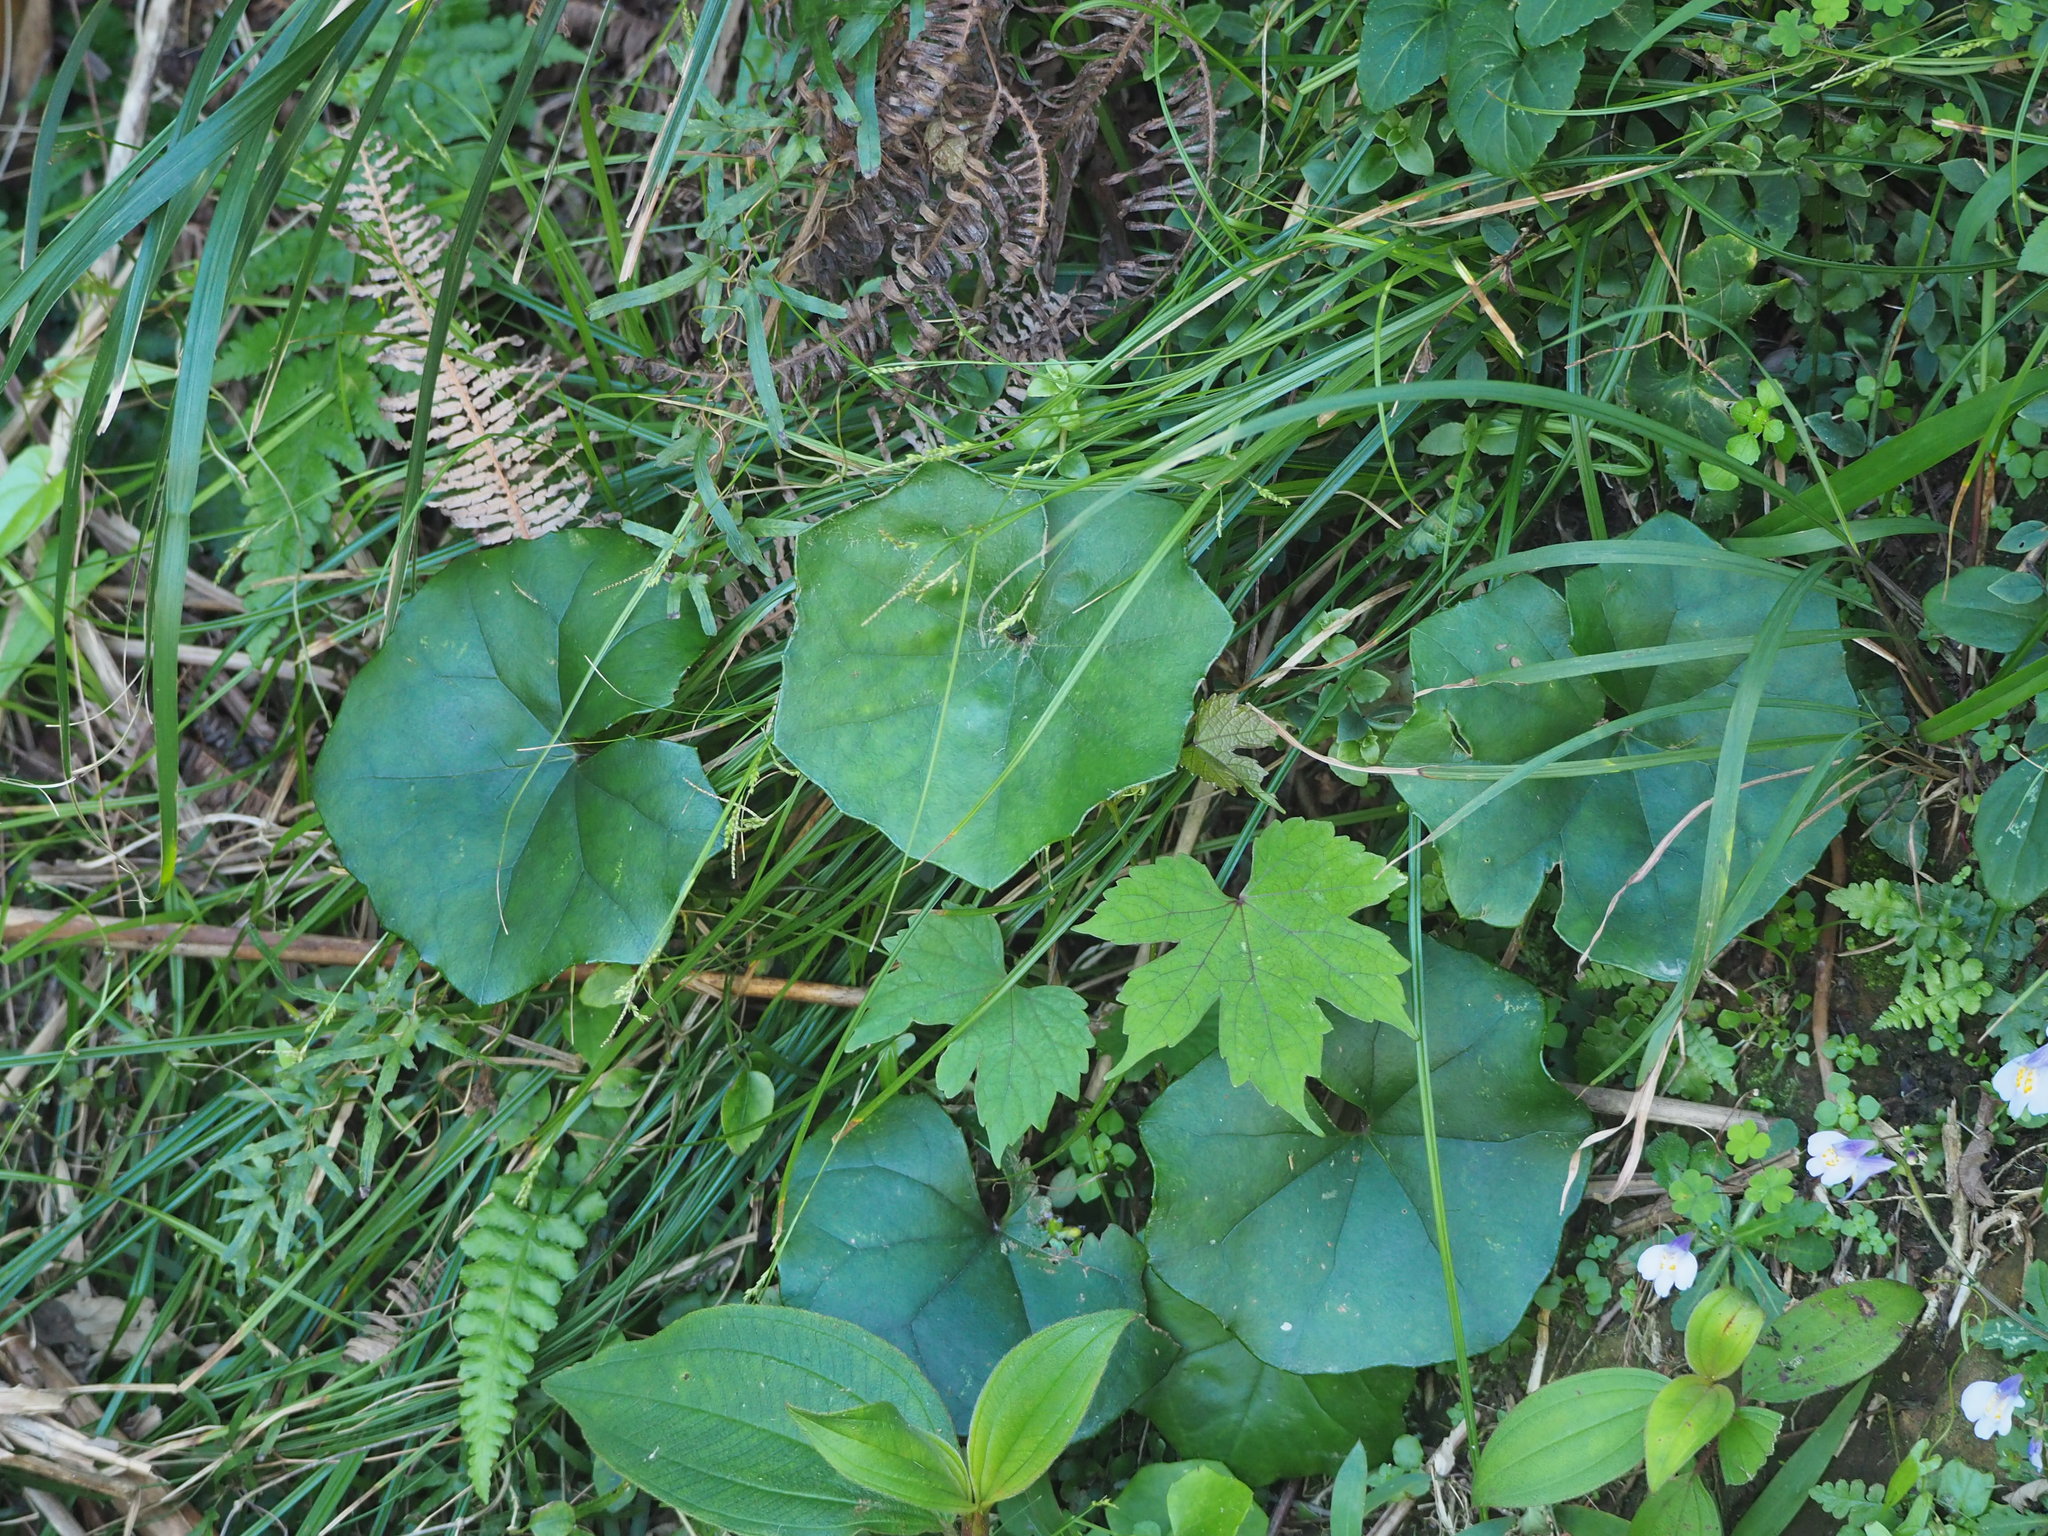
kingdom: Plantae
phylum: Tracheophyta
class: Magnoliopsida
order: Asterales
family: Asteraceae
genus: Farfugium
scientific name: Farfugium japonicum
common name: Leopardplant
